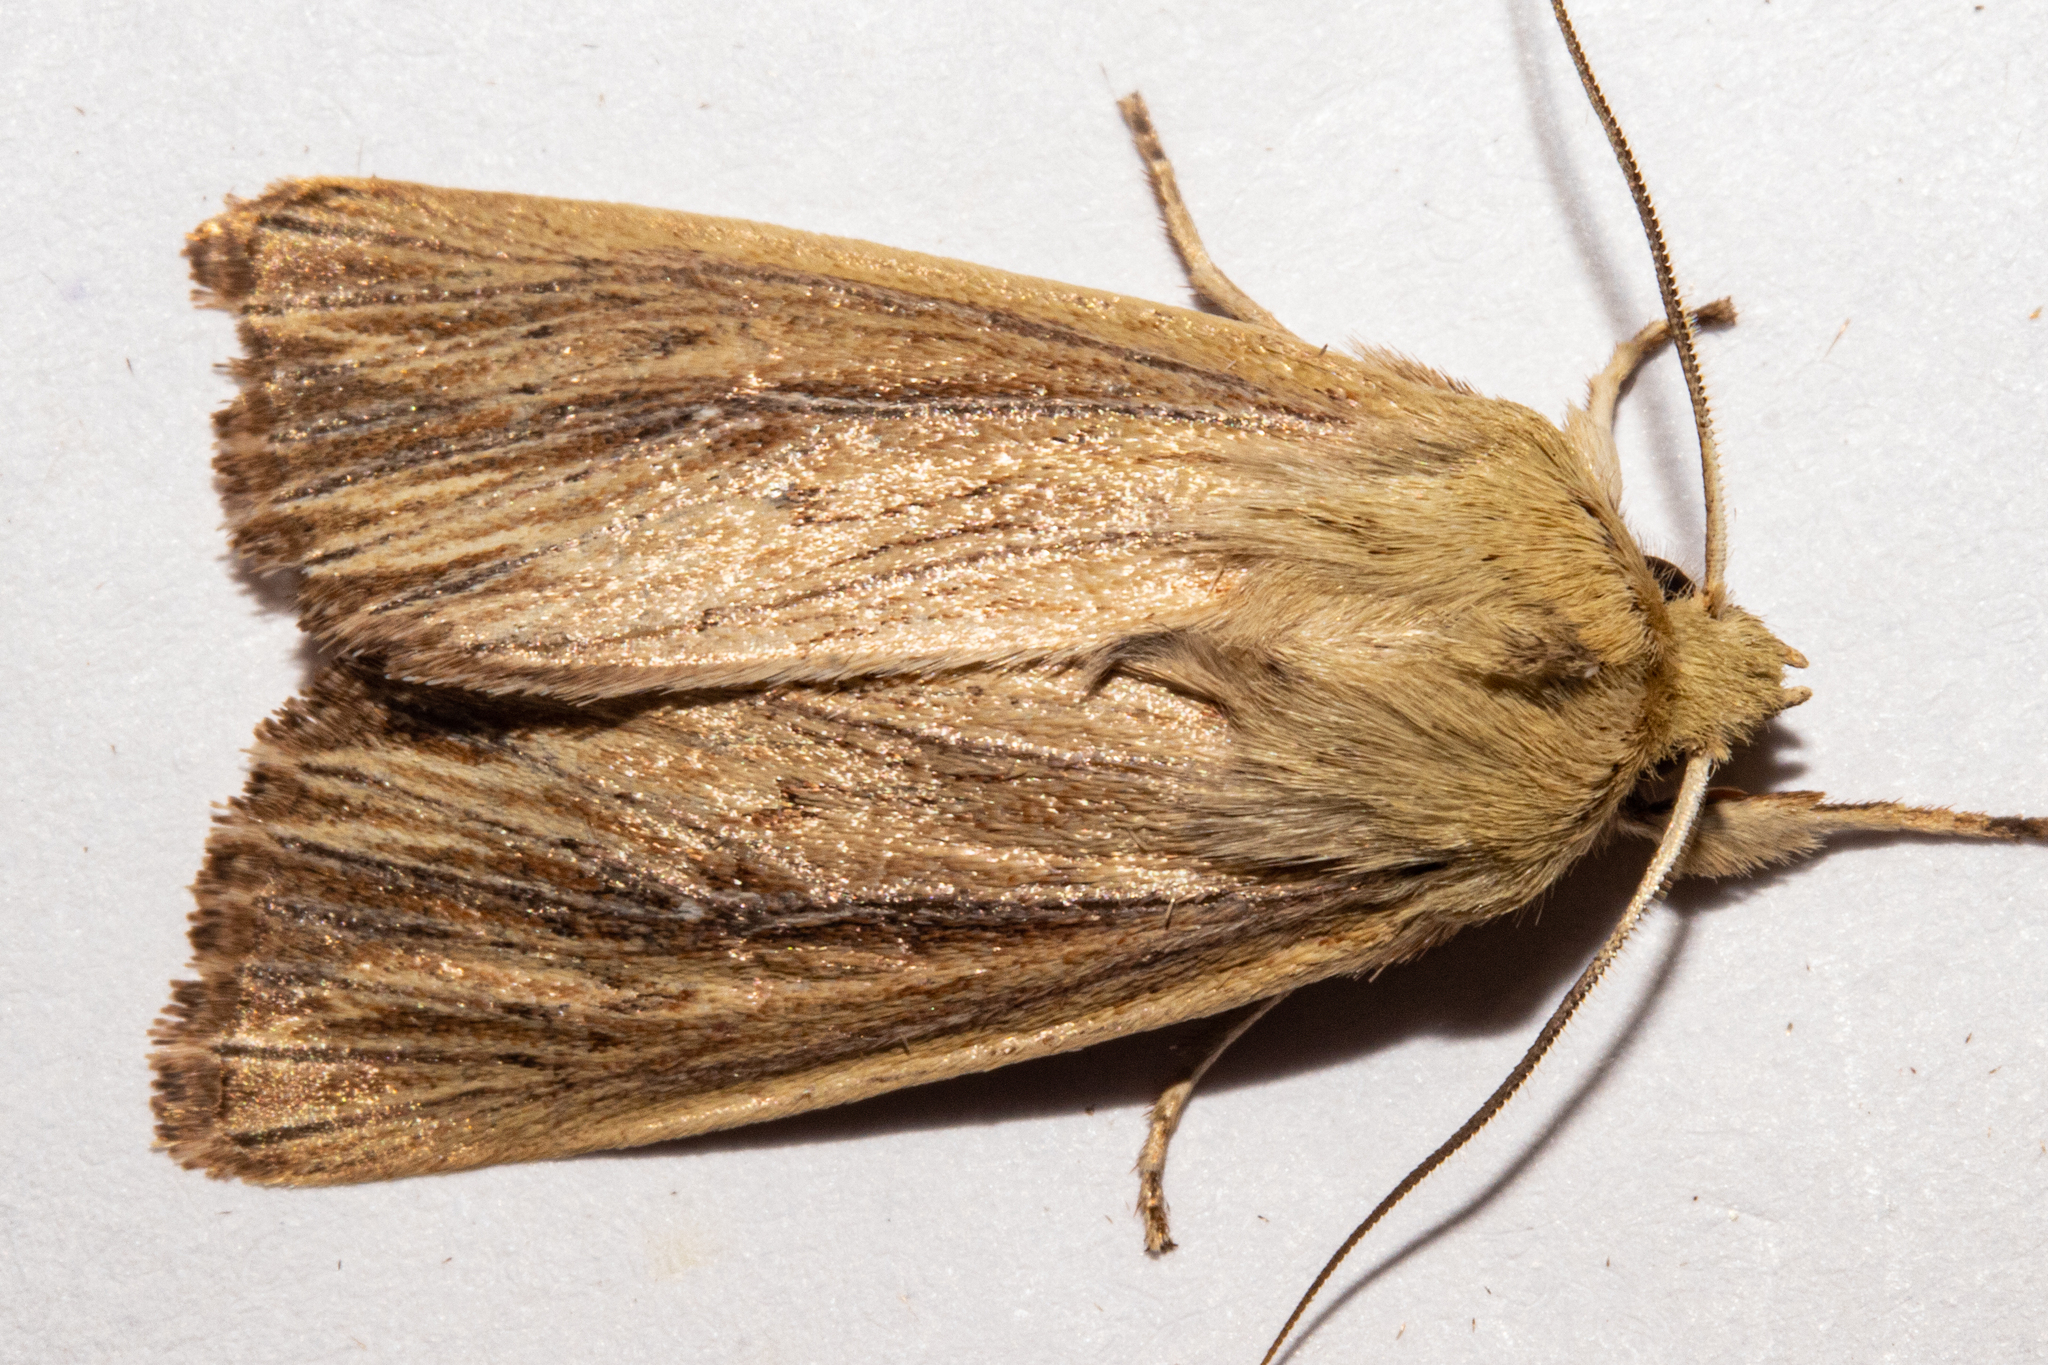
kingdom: Animalia
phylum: Arthropoda
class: Insecta
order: Lepidoptera
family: Noctuidae
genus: Ichneutica
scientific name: Ichneutica arotis
